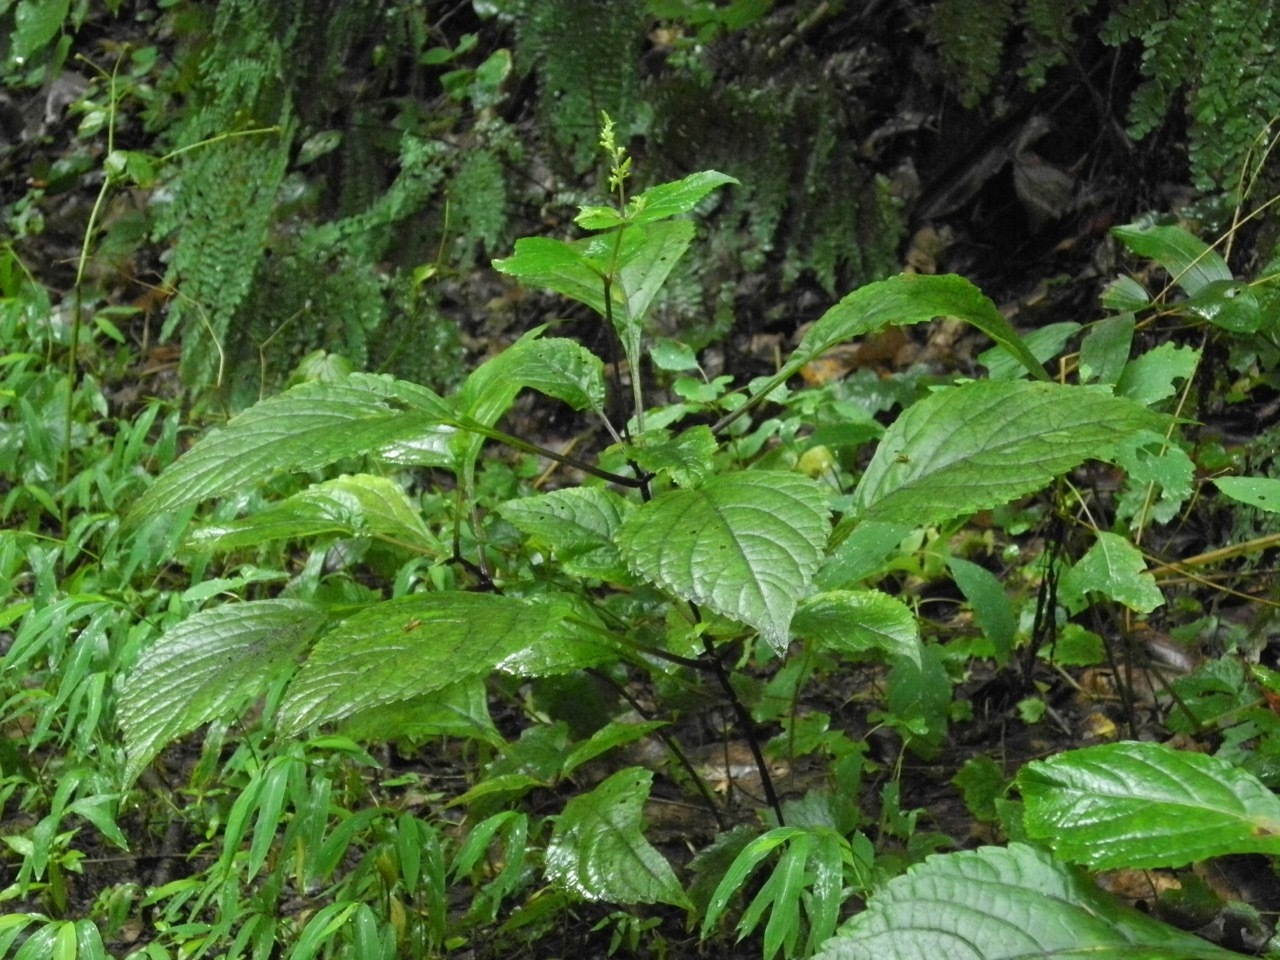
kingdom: Plantae
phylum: Tracheophyta
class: Magnoliopsida
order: Lamiales
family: Lamiaceae
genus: Collinsonia
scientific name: Collinsonia canadensis
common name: Northern horsebalm
